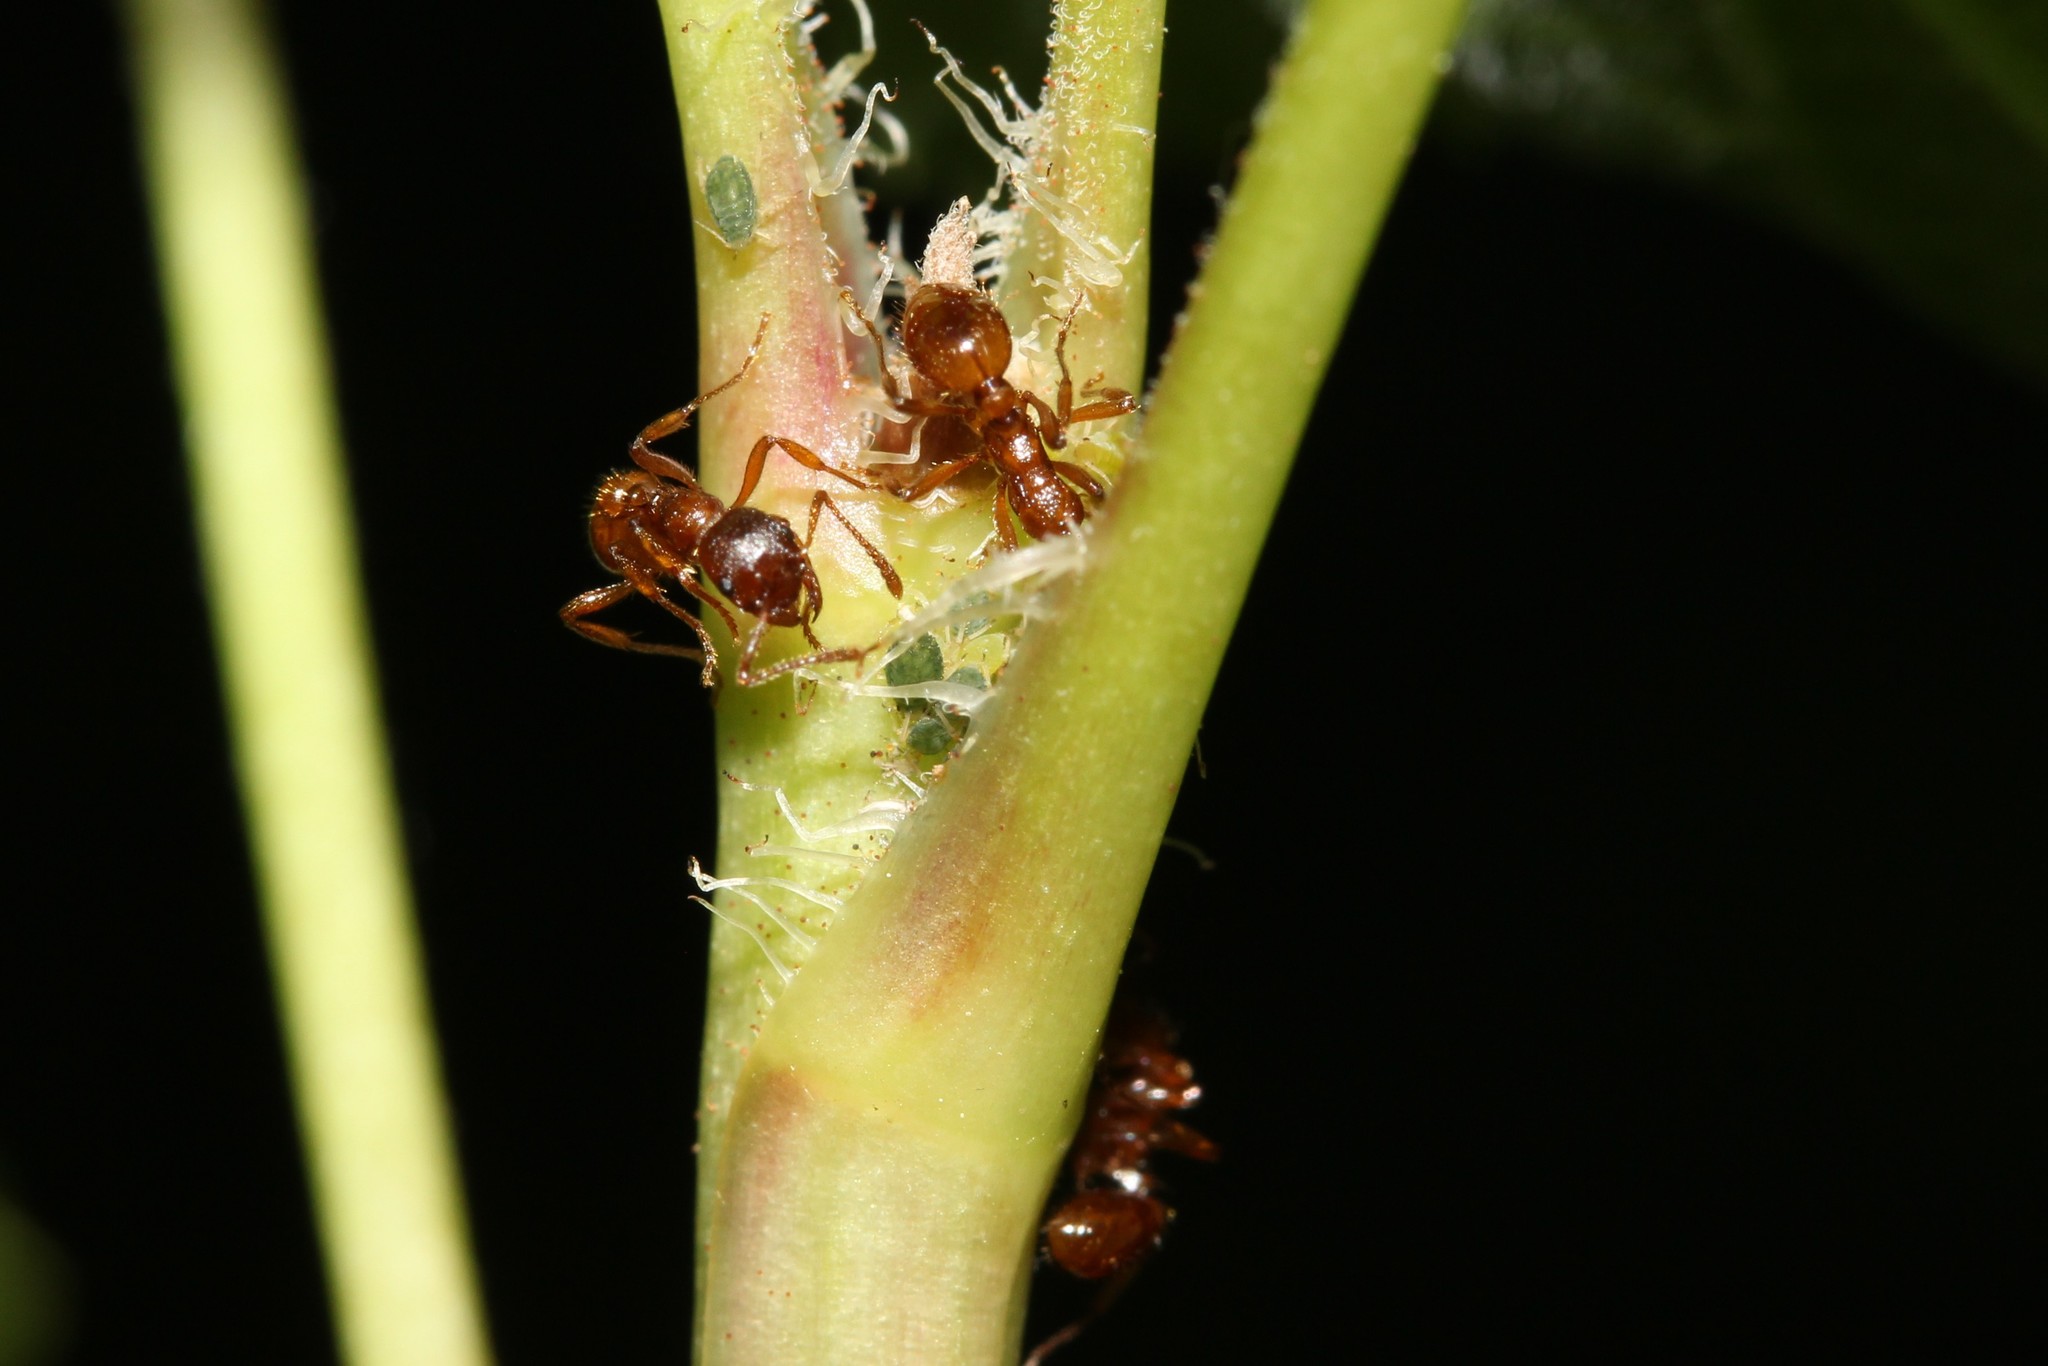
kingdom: Animalia
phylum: Arthropoda
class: Insecta
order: Hymenoptera
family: Formicidae
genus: Myrmica
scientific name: Myrmica rubra
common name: European fire ant
